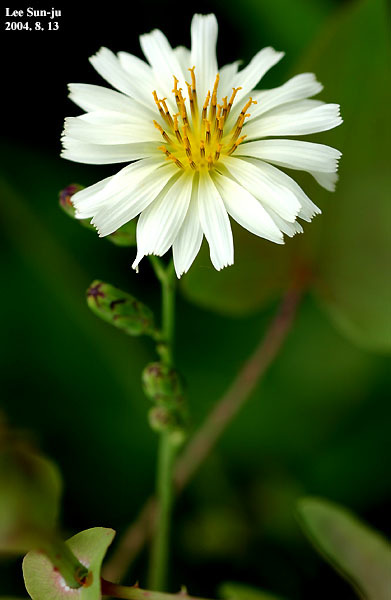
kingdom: Plantae
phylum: Tracheophyta
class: Magnoliopsida
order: Asterales
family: Asteraceae
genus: Lactuca
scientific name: Lactuca indica
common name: Wild lettuce
